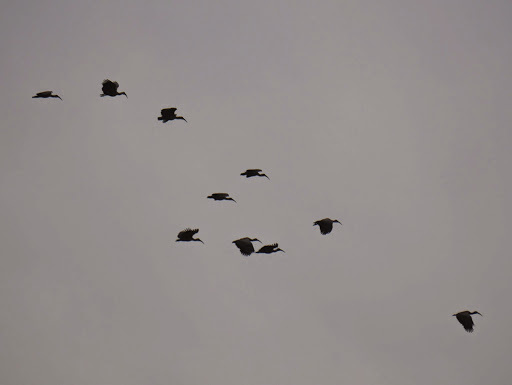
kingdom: Animalia
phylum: Chordata
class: Aves
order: Pelecaniformes
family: Threskiornithidae
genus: Bostrychia
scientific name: Bostrychia hagedash
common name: Hadada ibis
